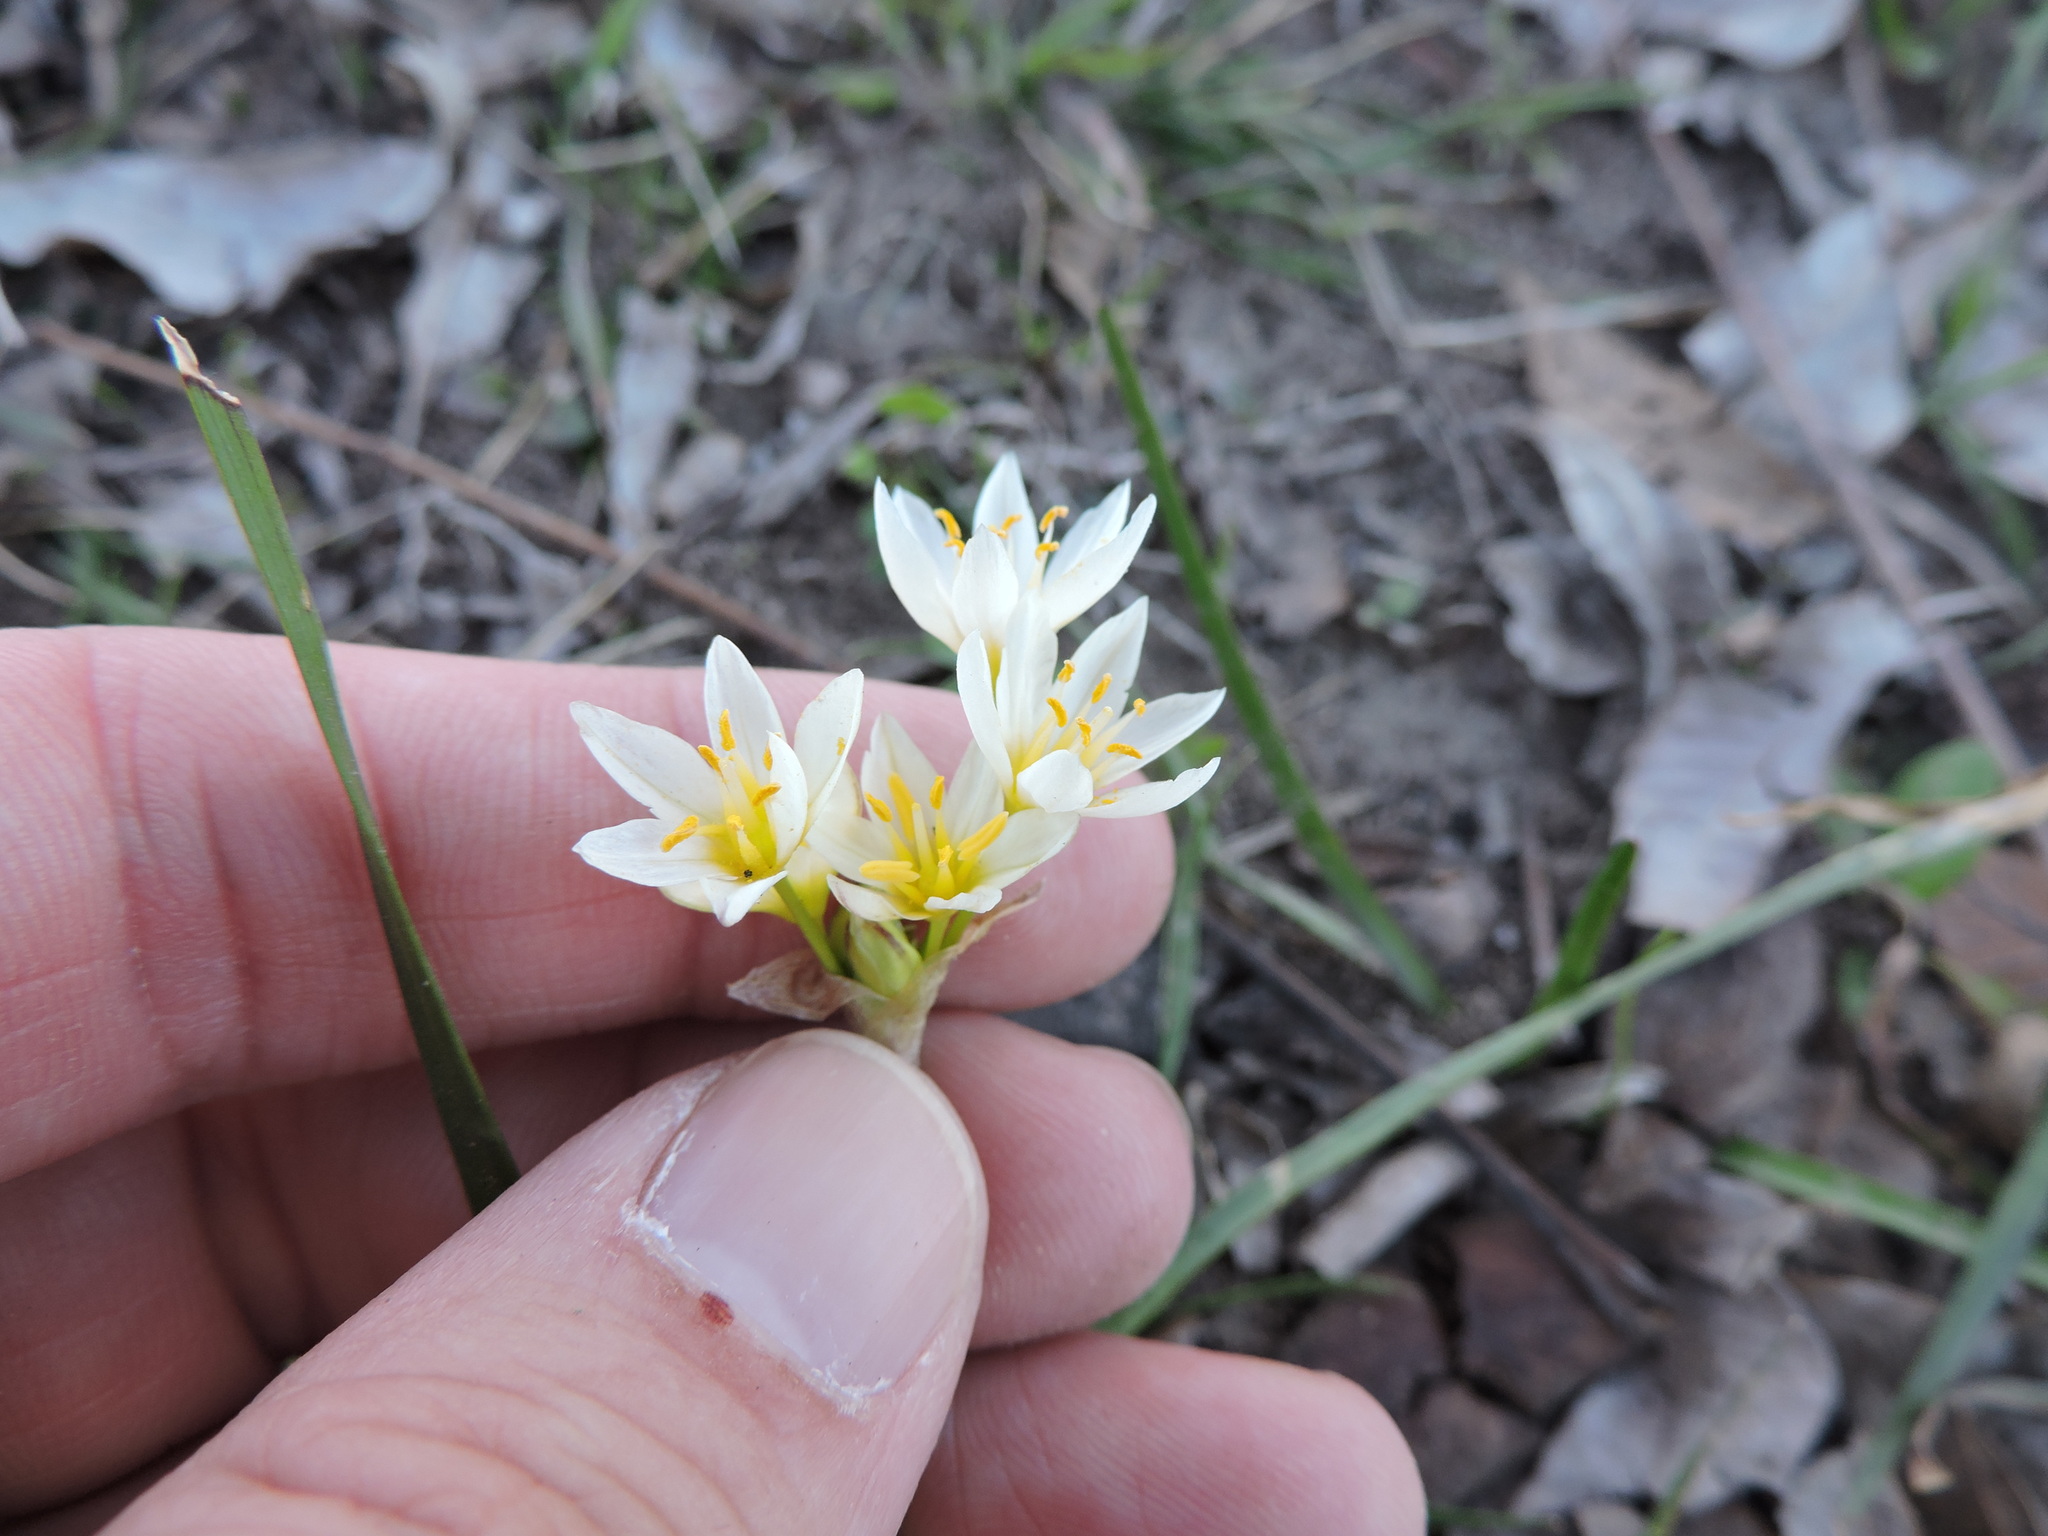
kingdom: Plantae
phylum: Tracheophyta
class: Liliopsida
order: Asparagales
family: Amaryllidaceae
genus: Nothoscordum
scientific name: Nothoscordum bivalve
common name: Crow-poison
